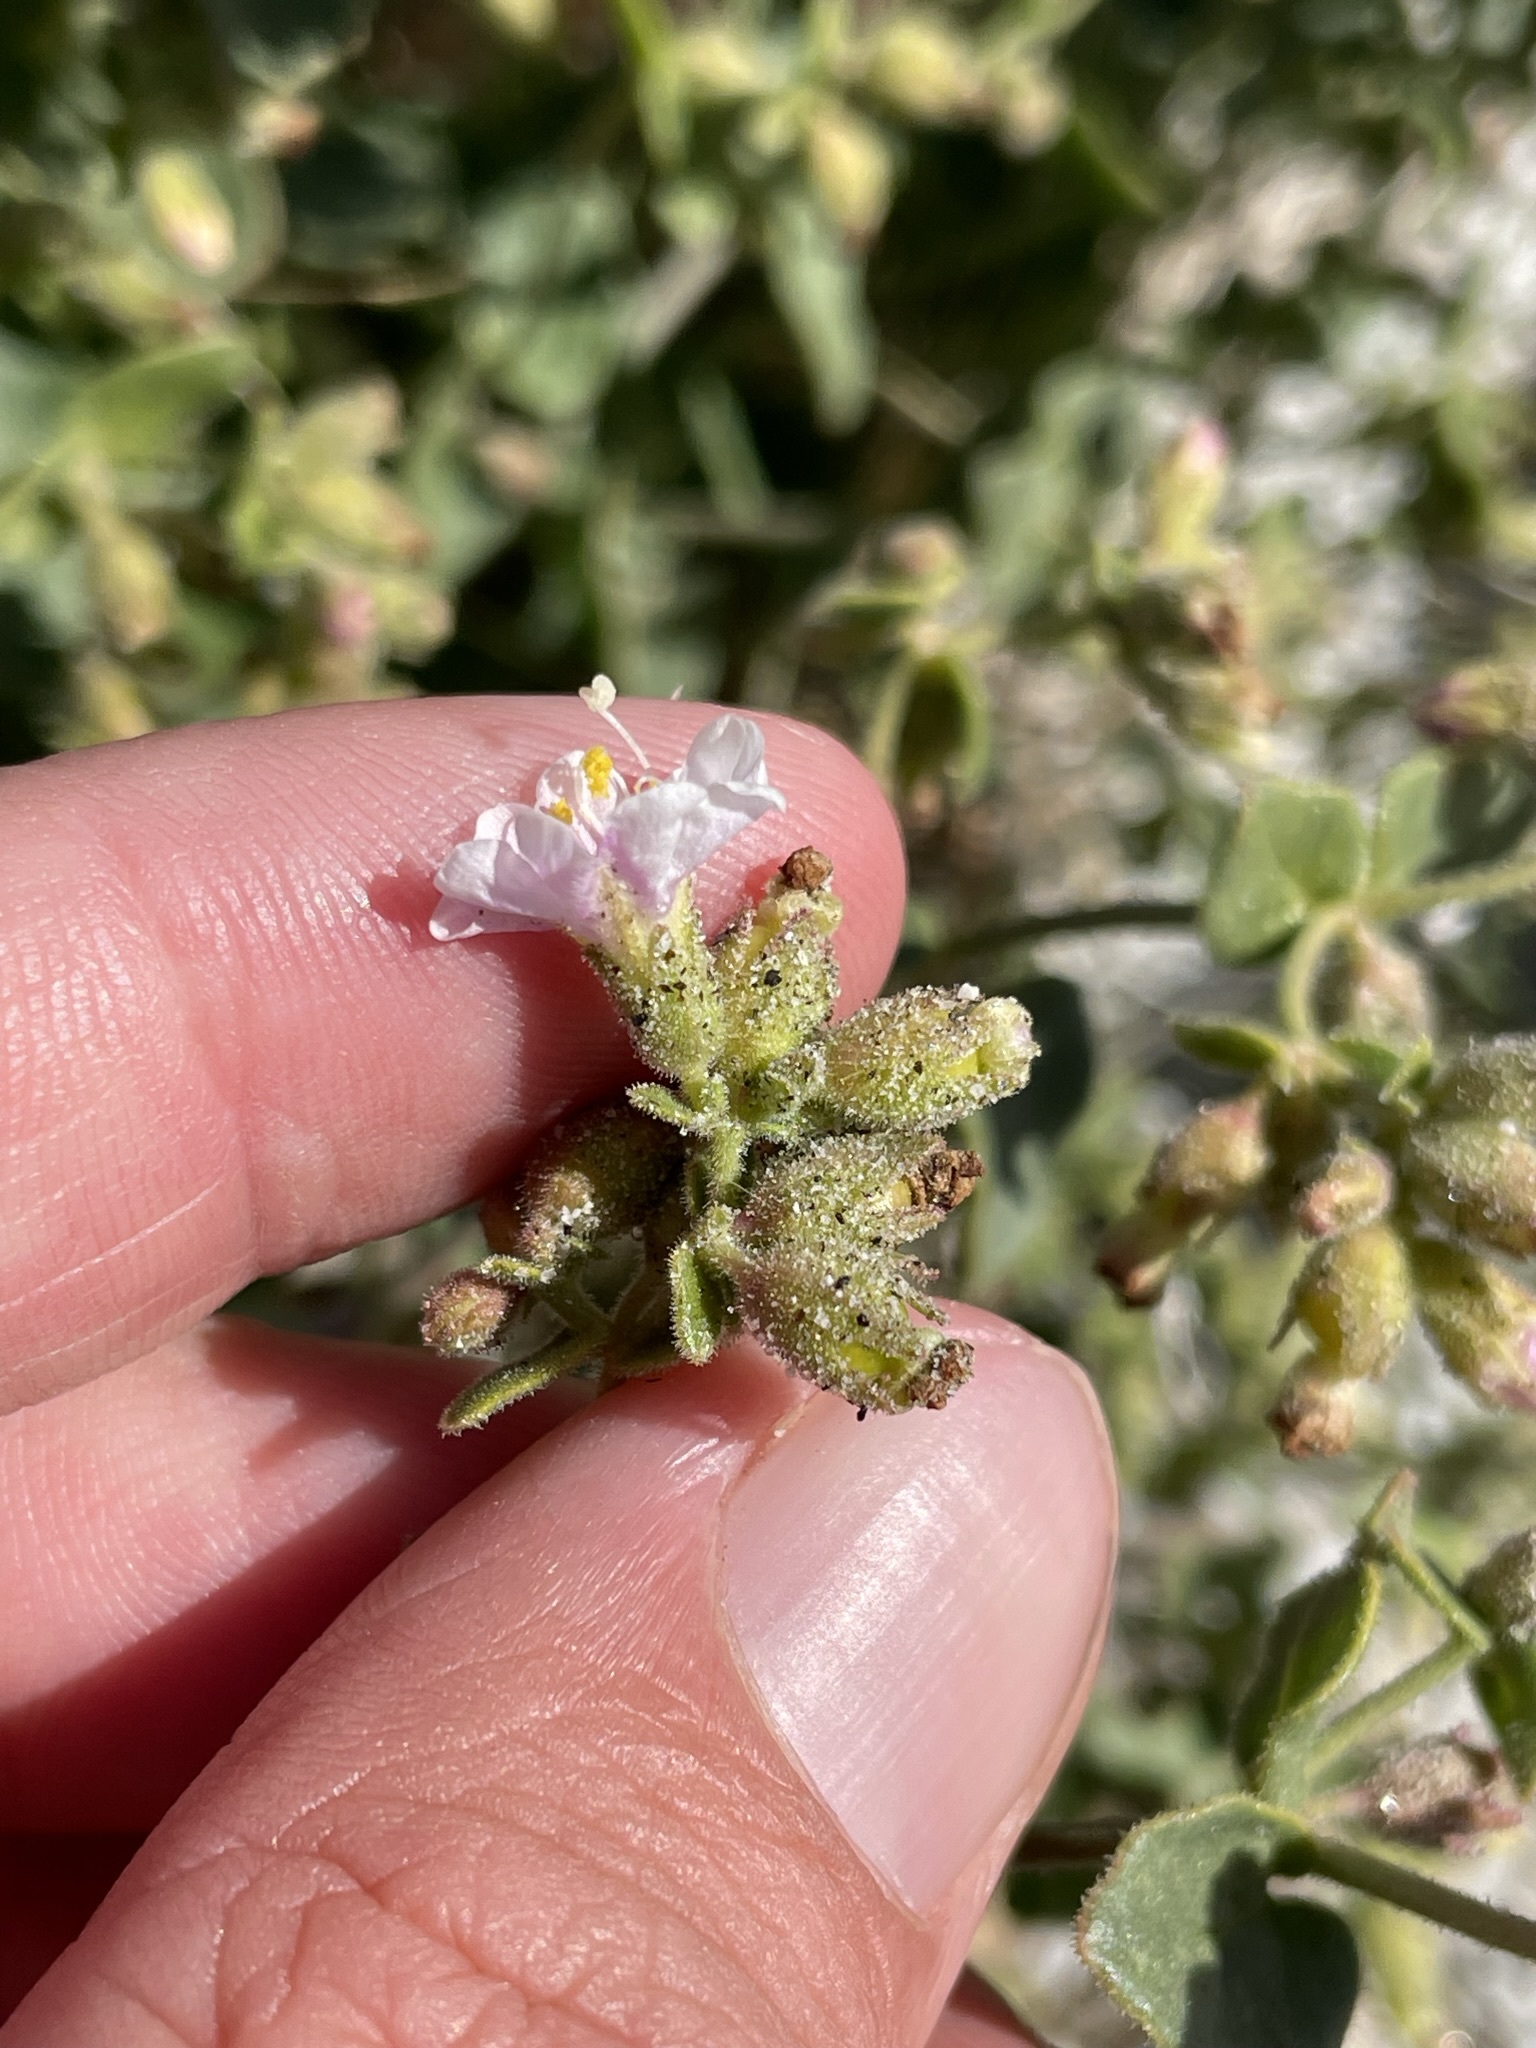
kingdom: Plantae
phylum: Tracheophyta
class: Magnoliopsida
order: Caryophyllales
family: Nyctaginaceae
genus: Mirabilis
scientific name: Mirabilis laevis
